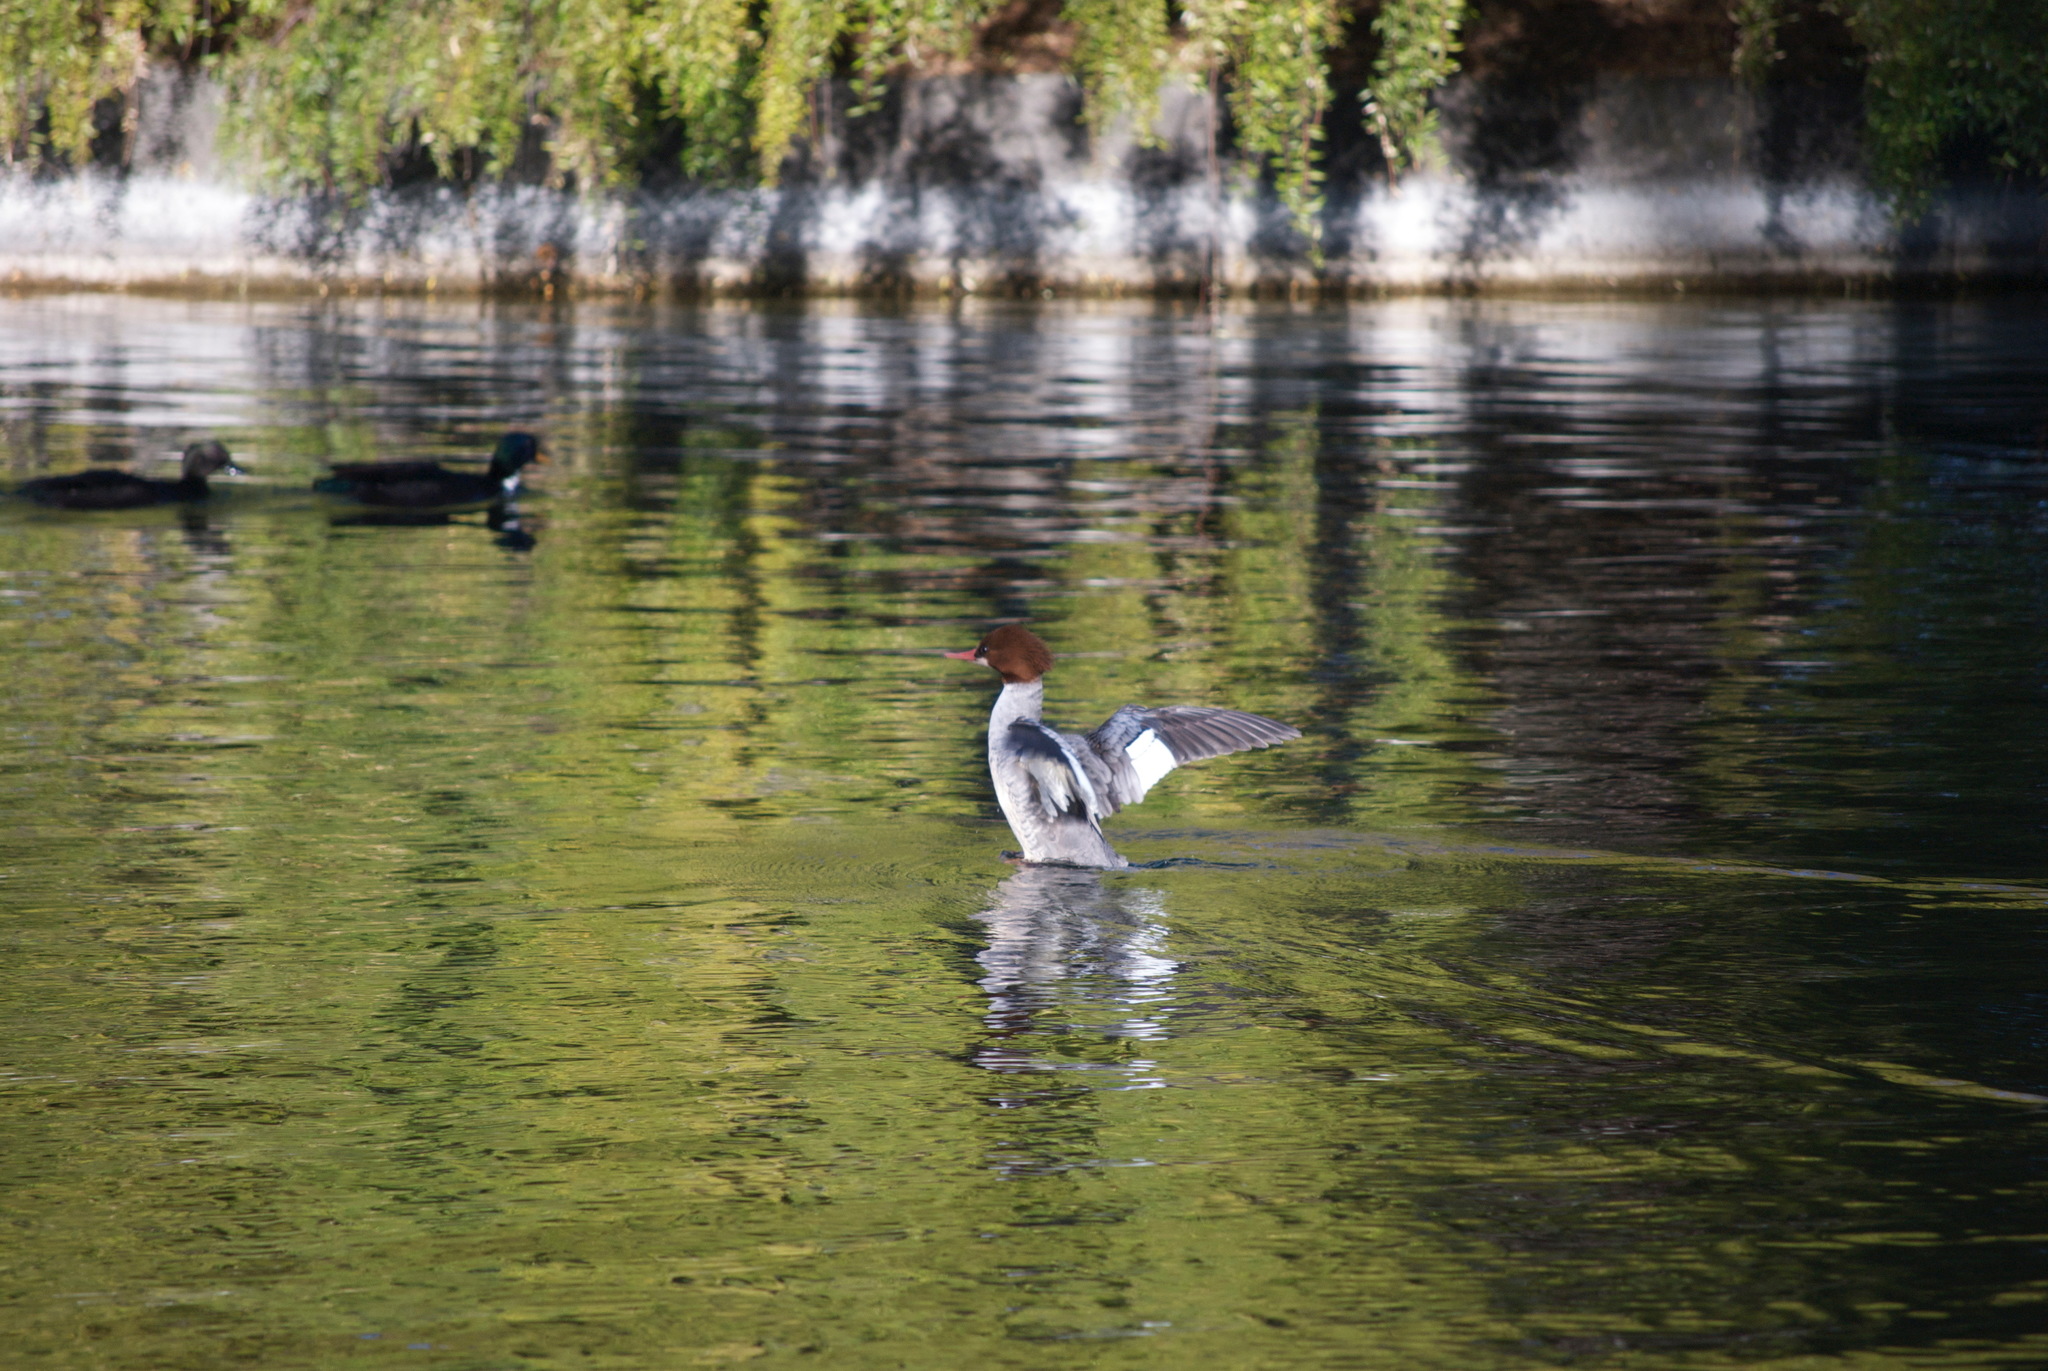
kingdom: Animalia
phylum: Chordata
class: Aves
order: Anseriformes
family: Anatidae
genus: Mergus
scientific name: Mergus merganser
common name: Common merganser
